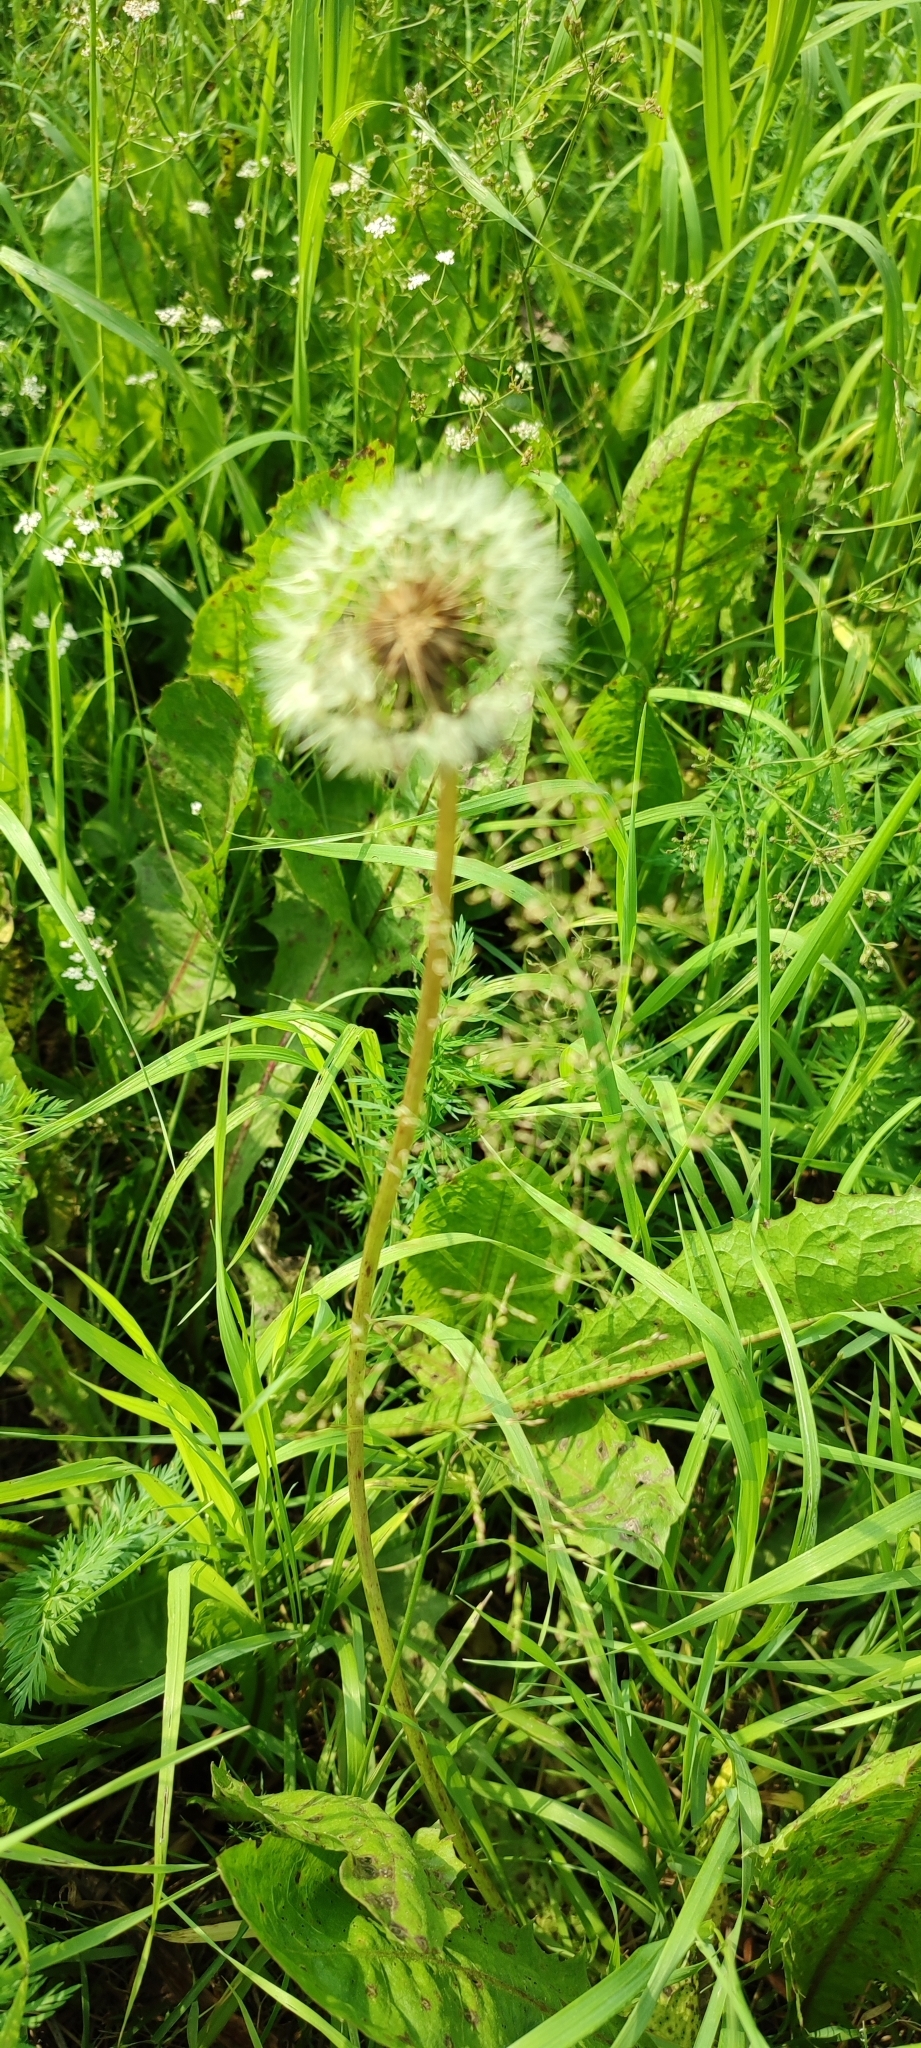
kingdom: Plantae
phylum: Tracheophyta
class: Magnoliopsida
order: Asterales
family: Asteraceae
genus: Taraxacum
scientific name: Taraxacum officinale
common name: Common dandelion
